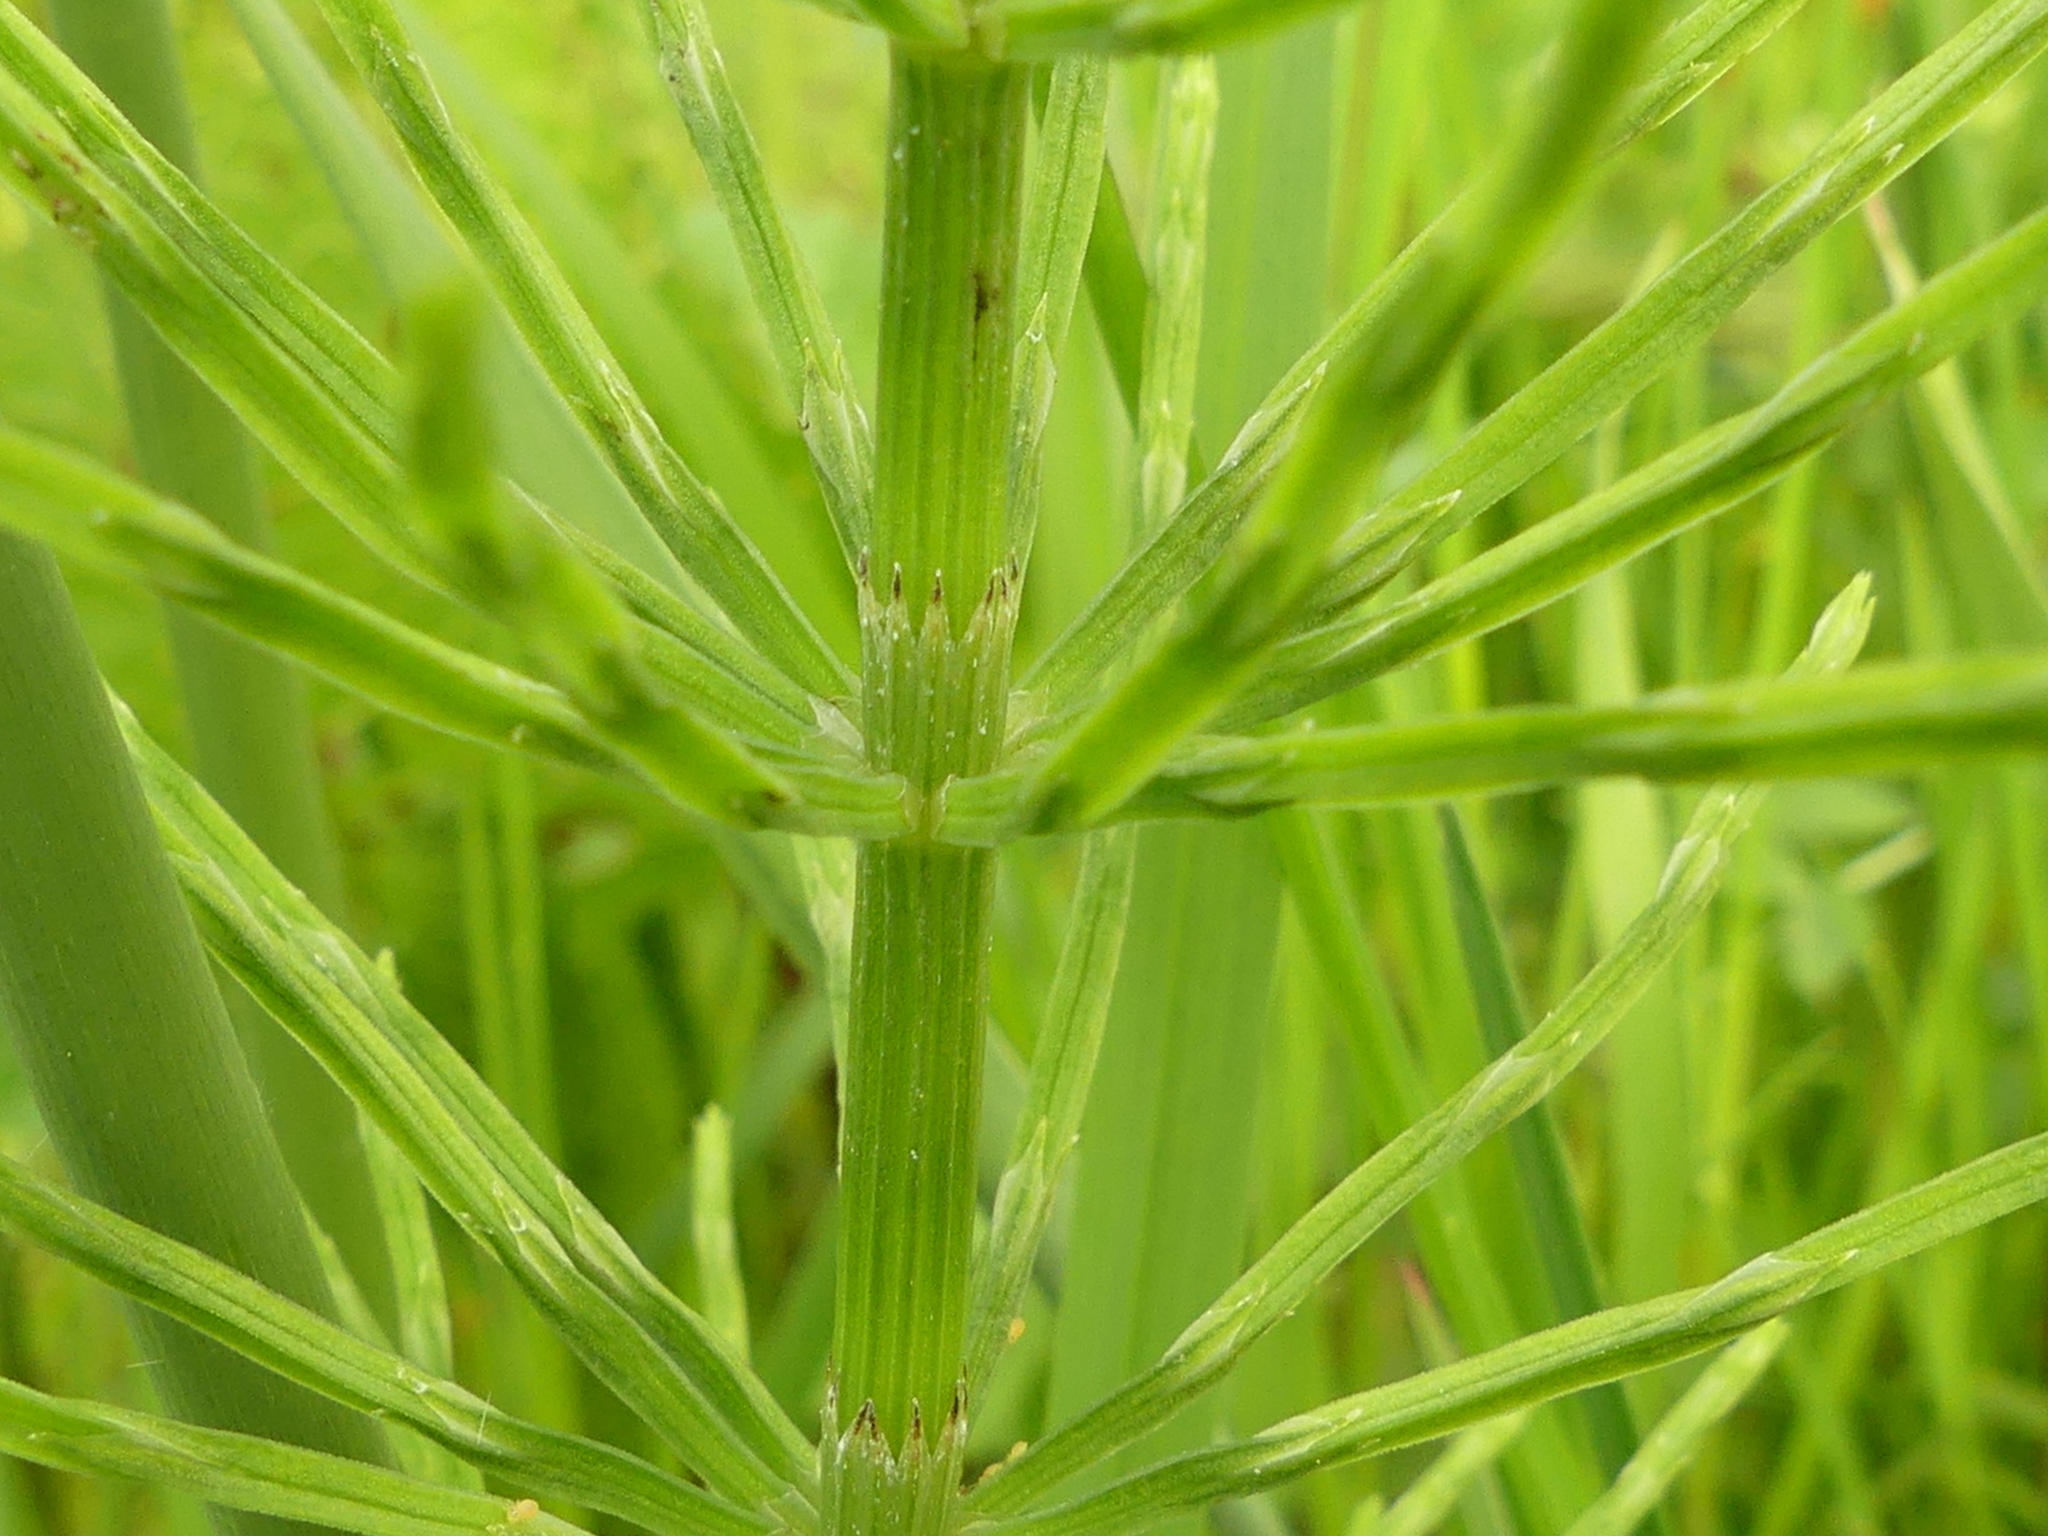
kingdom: Plantae
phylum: Tracheophyta
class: Polypodiopsida
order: Equisetales
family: Equisetaceae
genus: Equisetum
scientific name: Equisetum arvense
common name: Field horsetail
